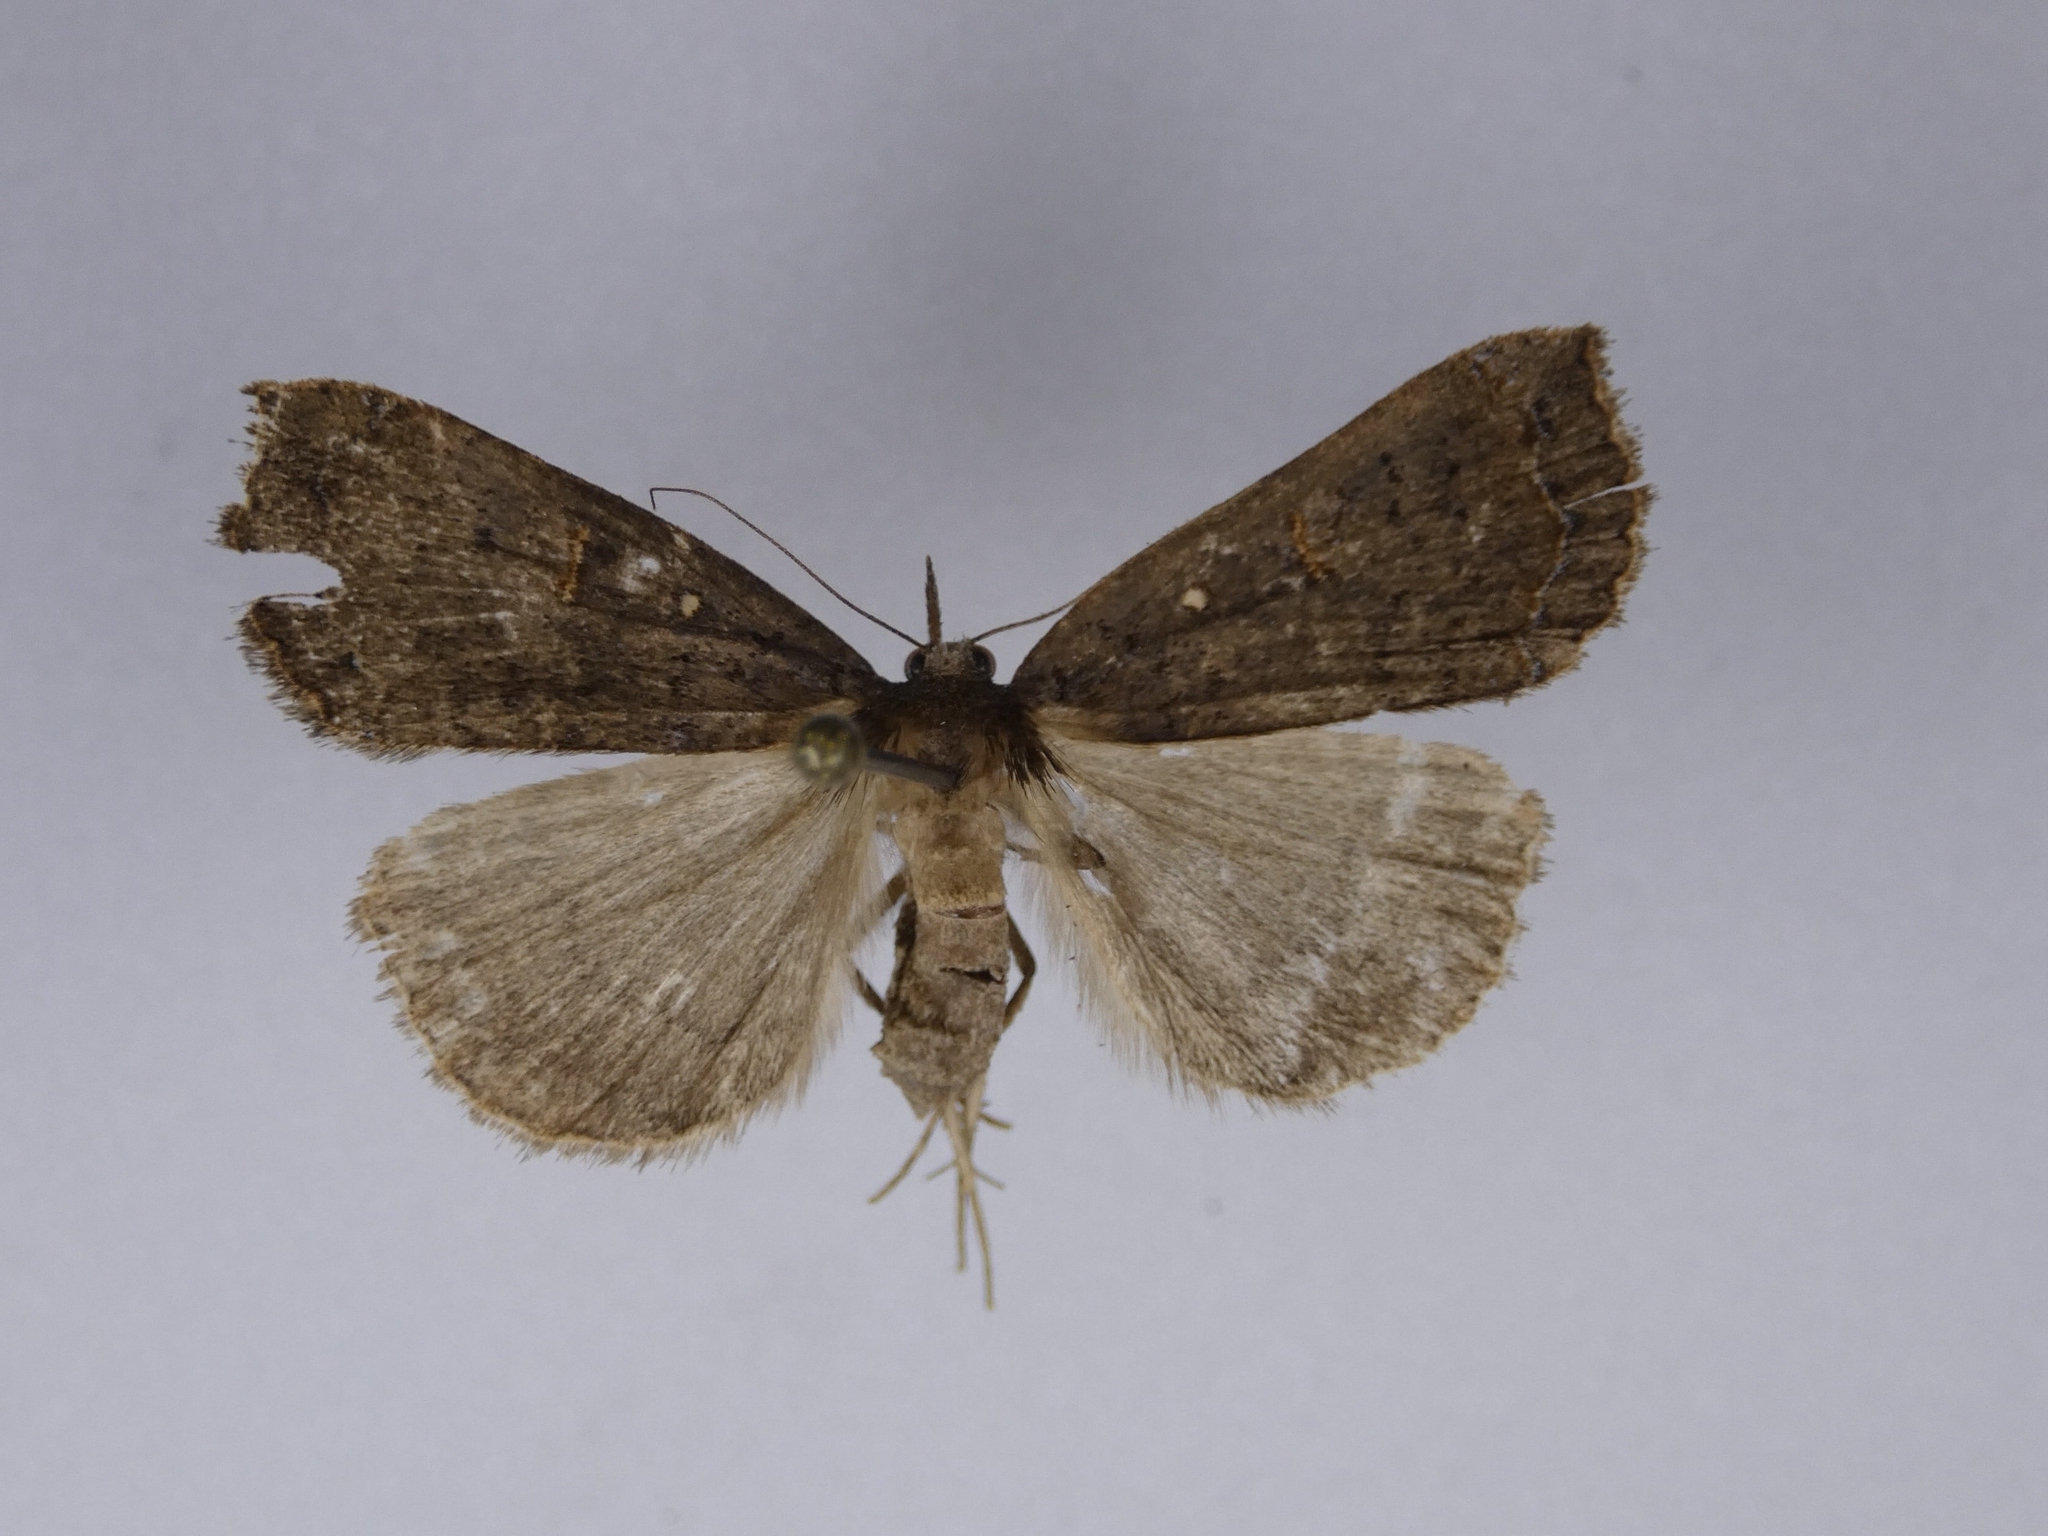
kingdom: Animalia
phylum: Arthropoda
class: Insecta
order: Lepidoptera
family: Erebidae
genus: Rhapsa
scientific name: Rhapsa scotosialis
